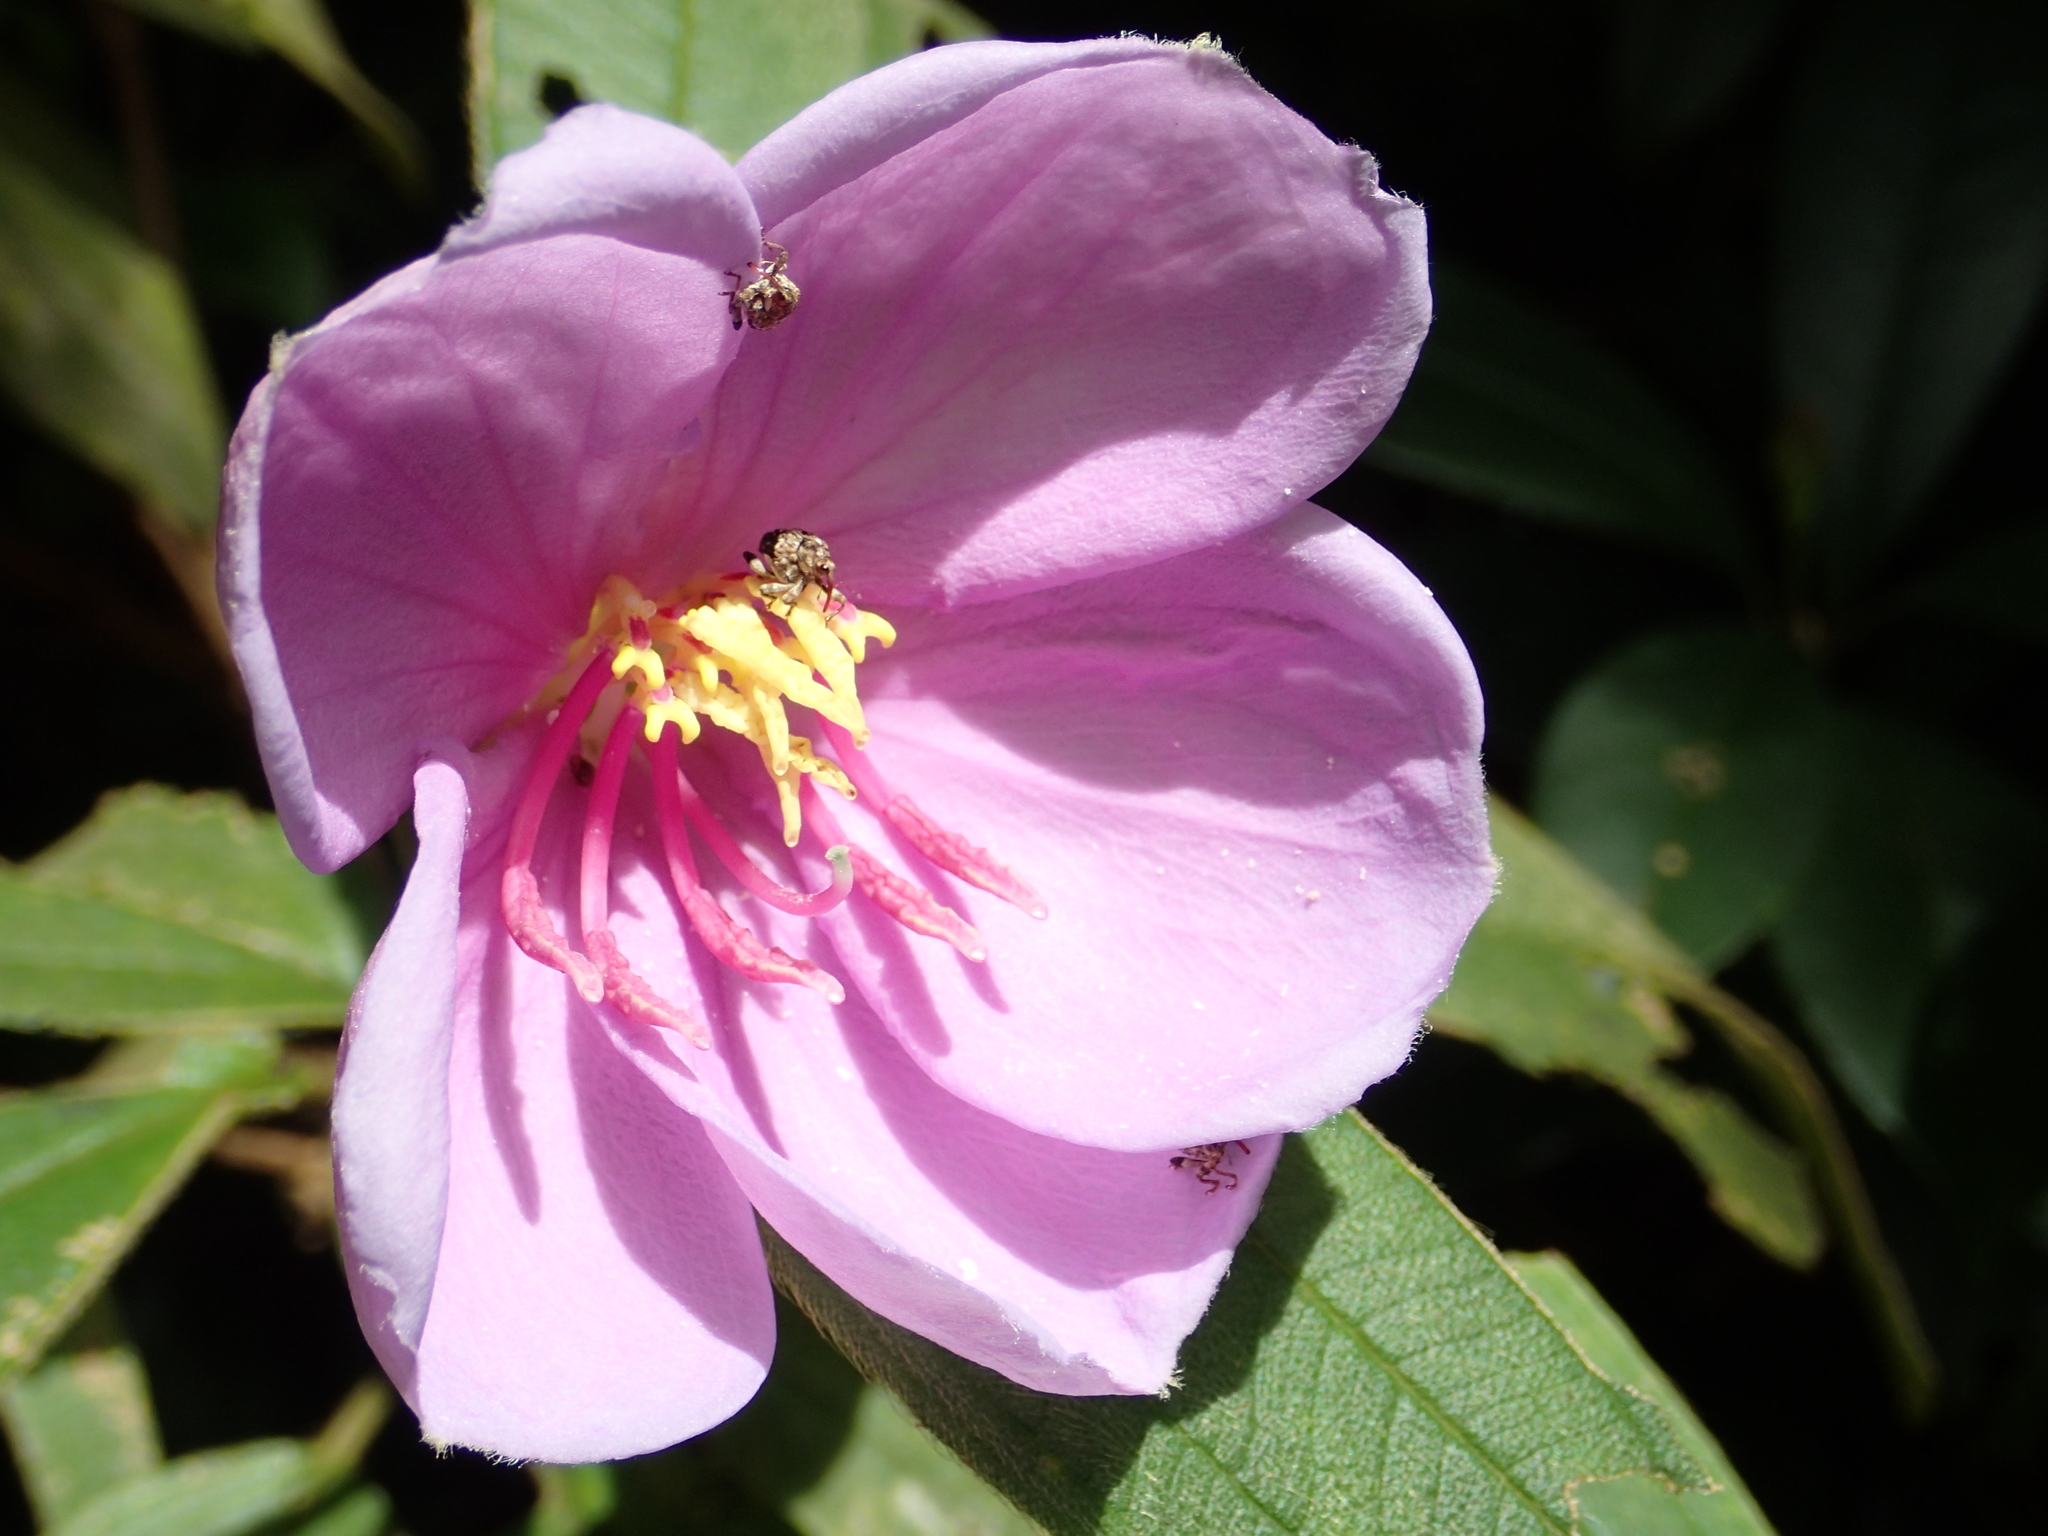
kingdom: Plantae
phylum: Tracheophyta
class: Magnoliopsida
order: Myrtales
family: Melastomataceae
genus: Melastoma
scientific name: Melastoma malabathricum
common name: Indian-rhododendron
